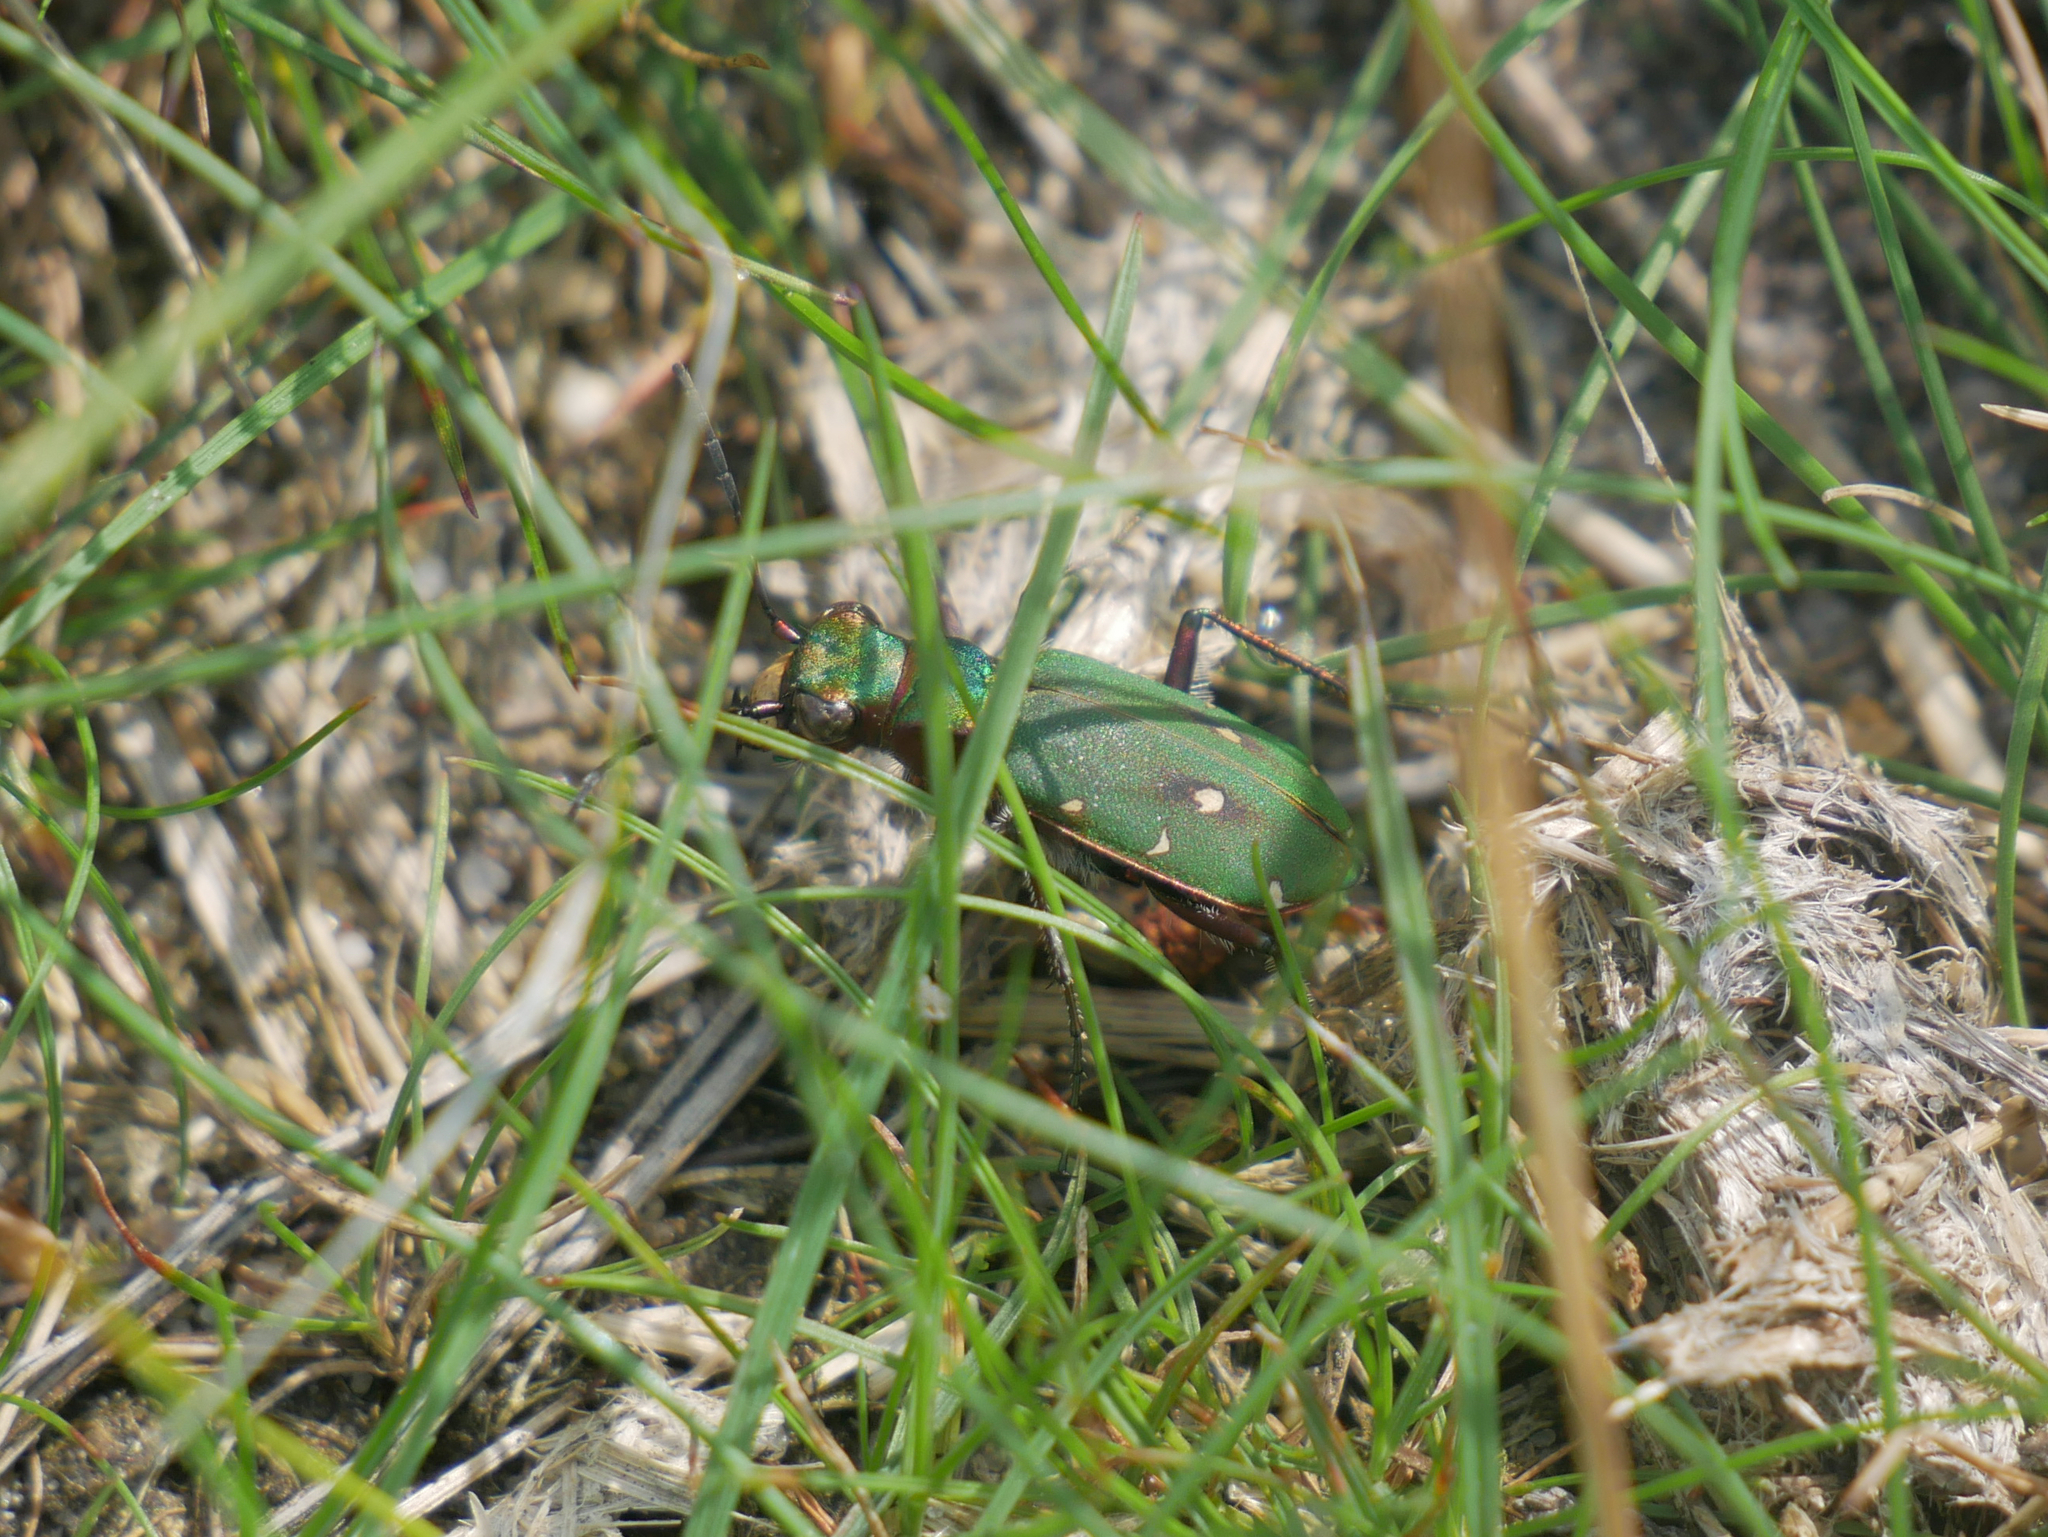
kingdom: Animalia
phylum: Arthropoda
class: Insecta
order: Coleoptera
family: Carabidae
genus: Cicindela
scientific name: Cicindela campestris
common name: Common tiger beetle
